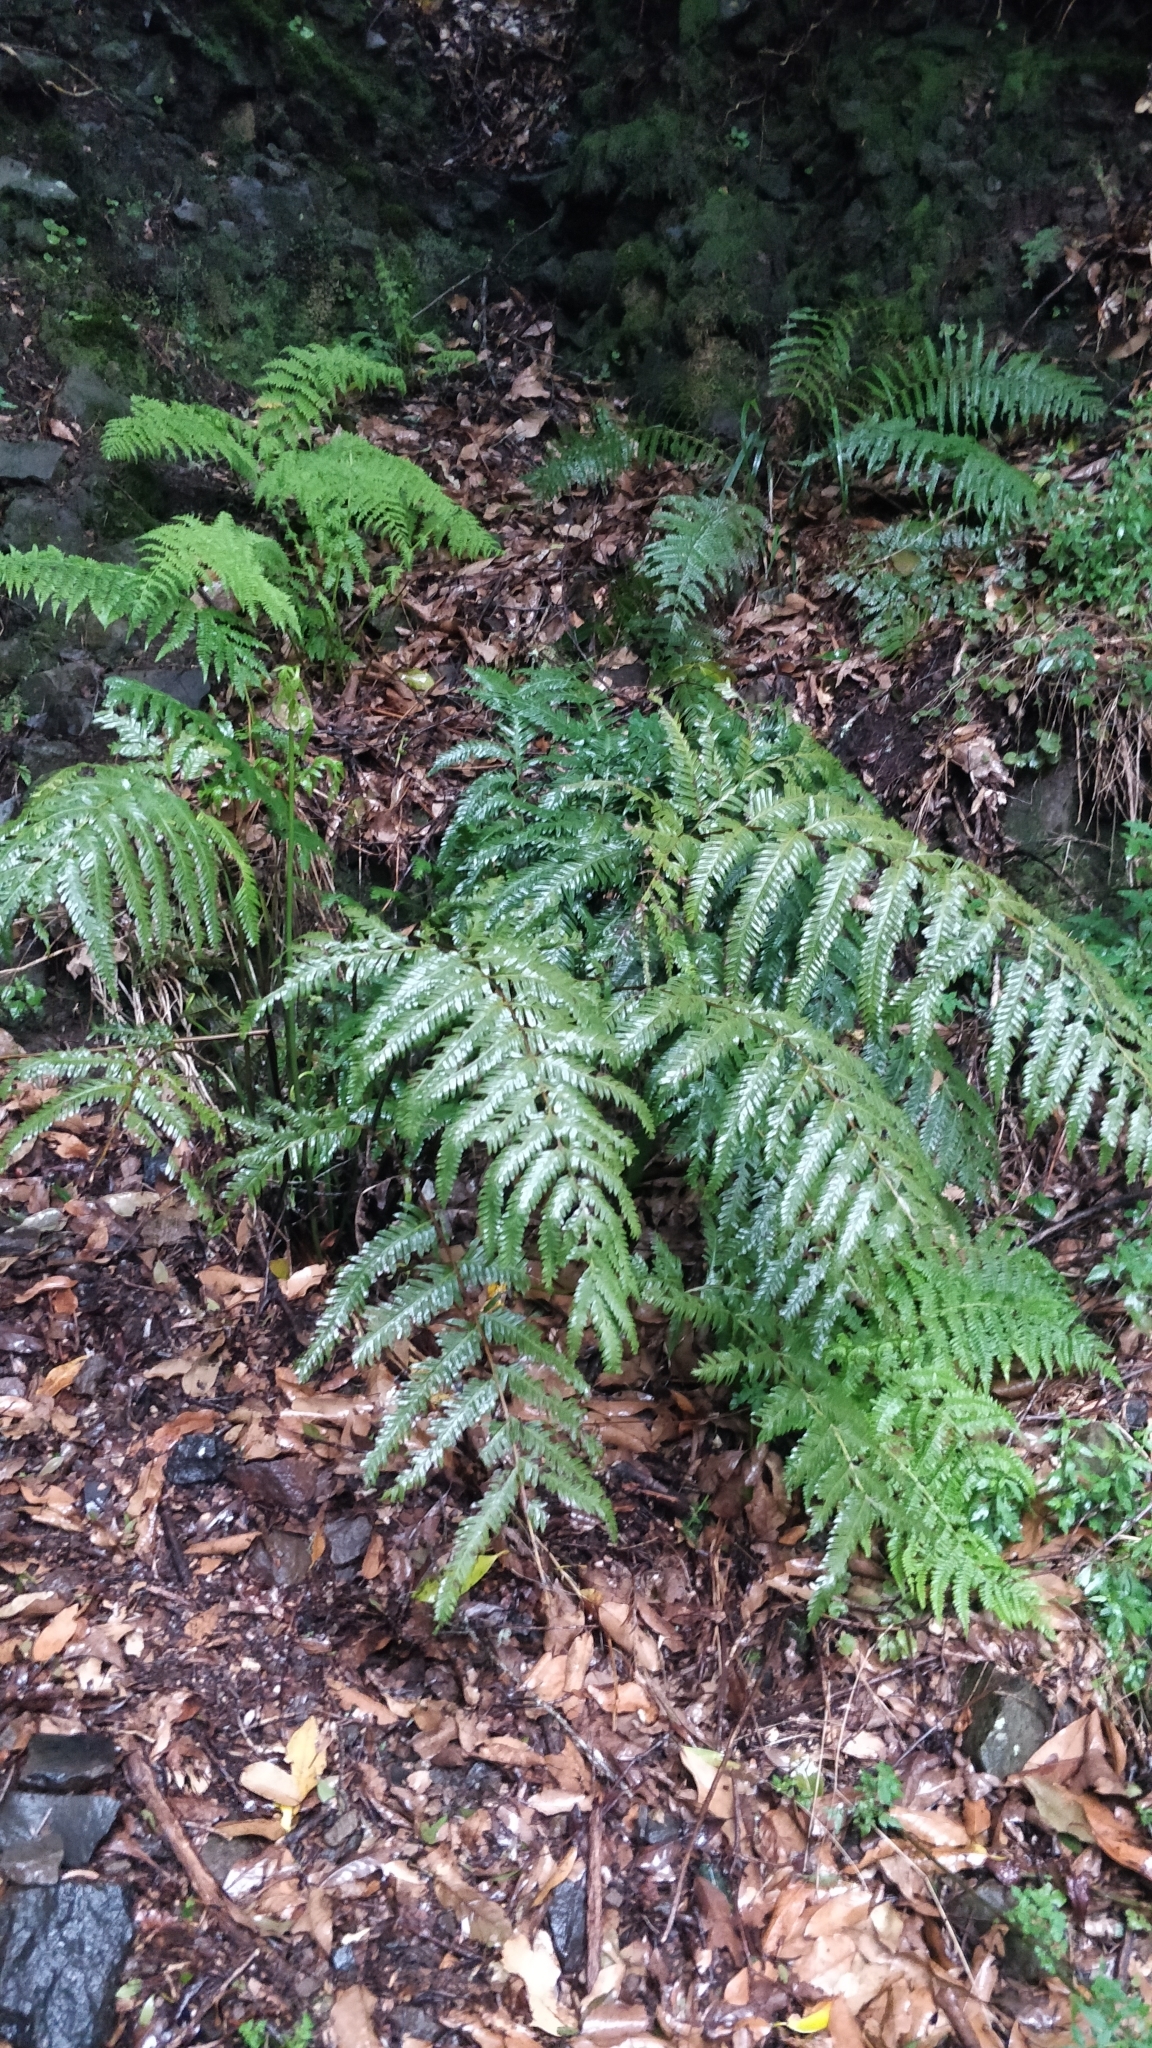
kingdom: Plantae
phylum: Tracheophyta
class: Polypodiopsida
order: Polypodiales
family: Pteridaceae
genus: Pteris
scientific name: Pteris incompleta
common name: Laurisilva brake
